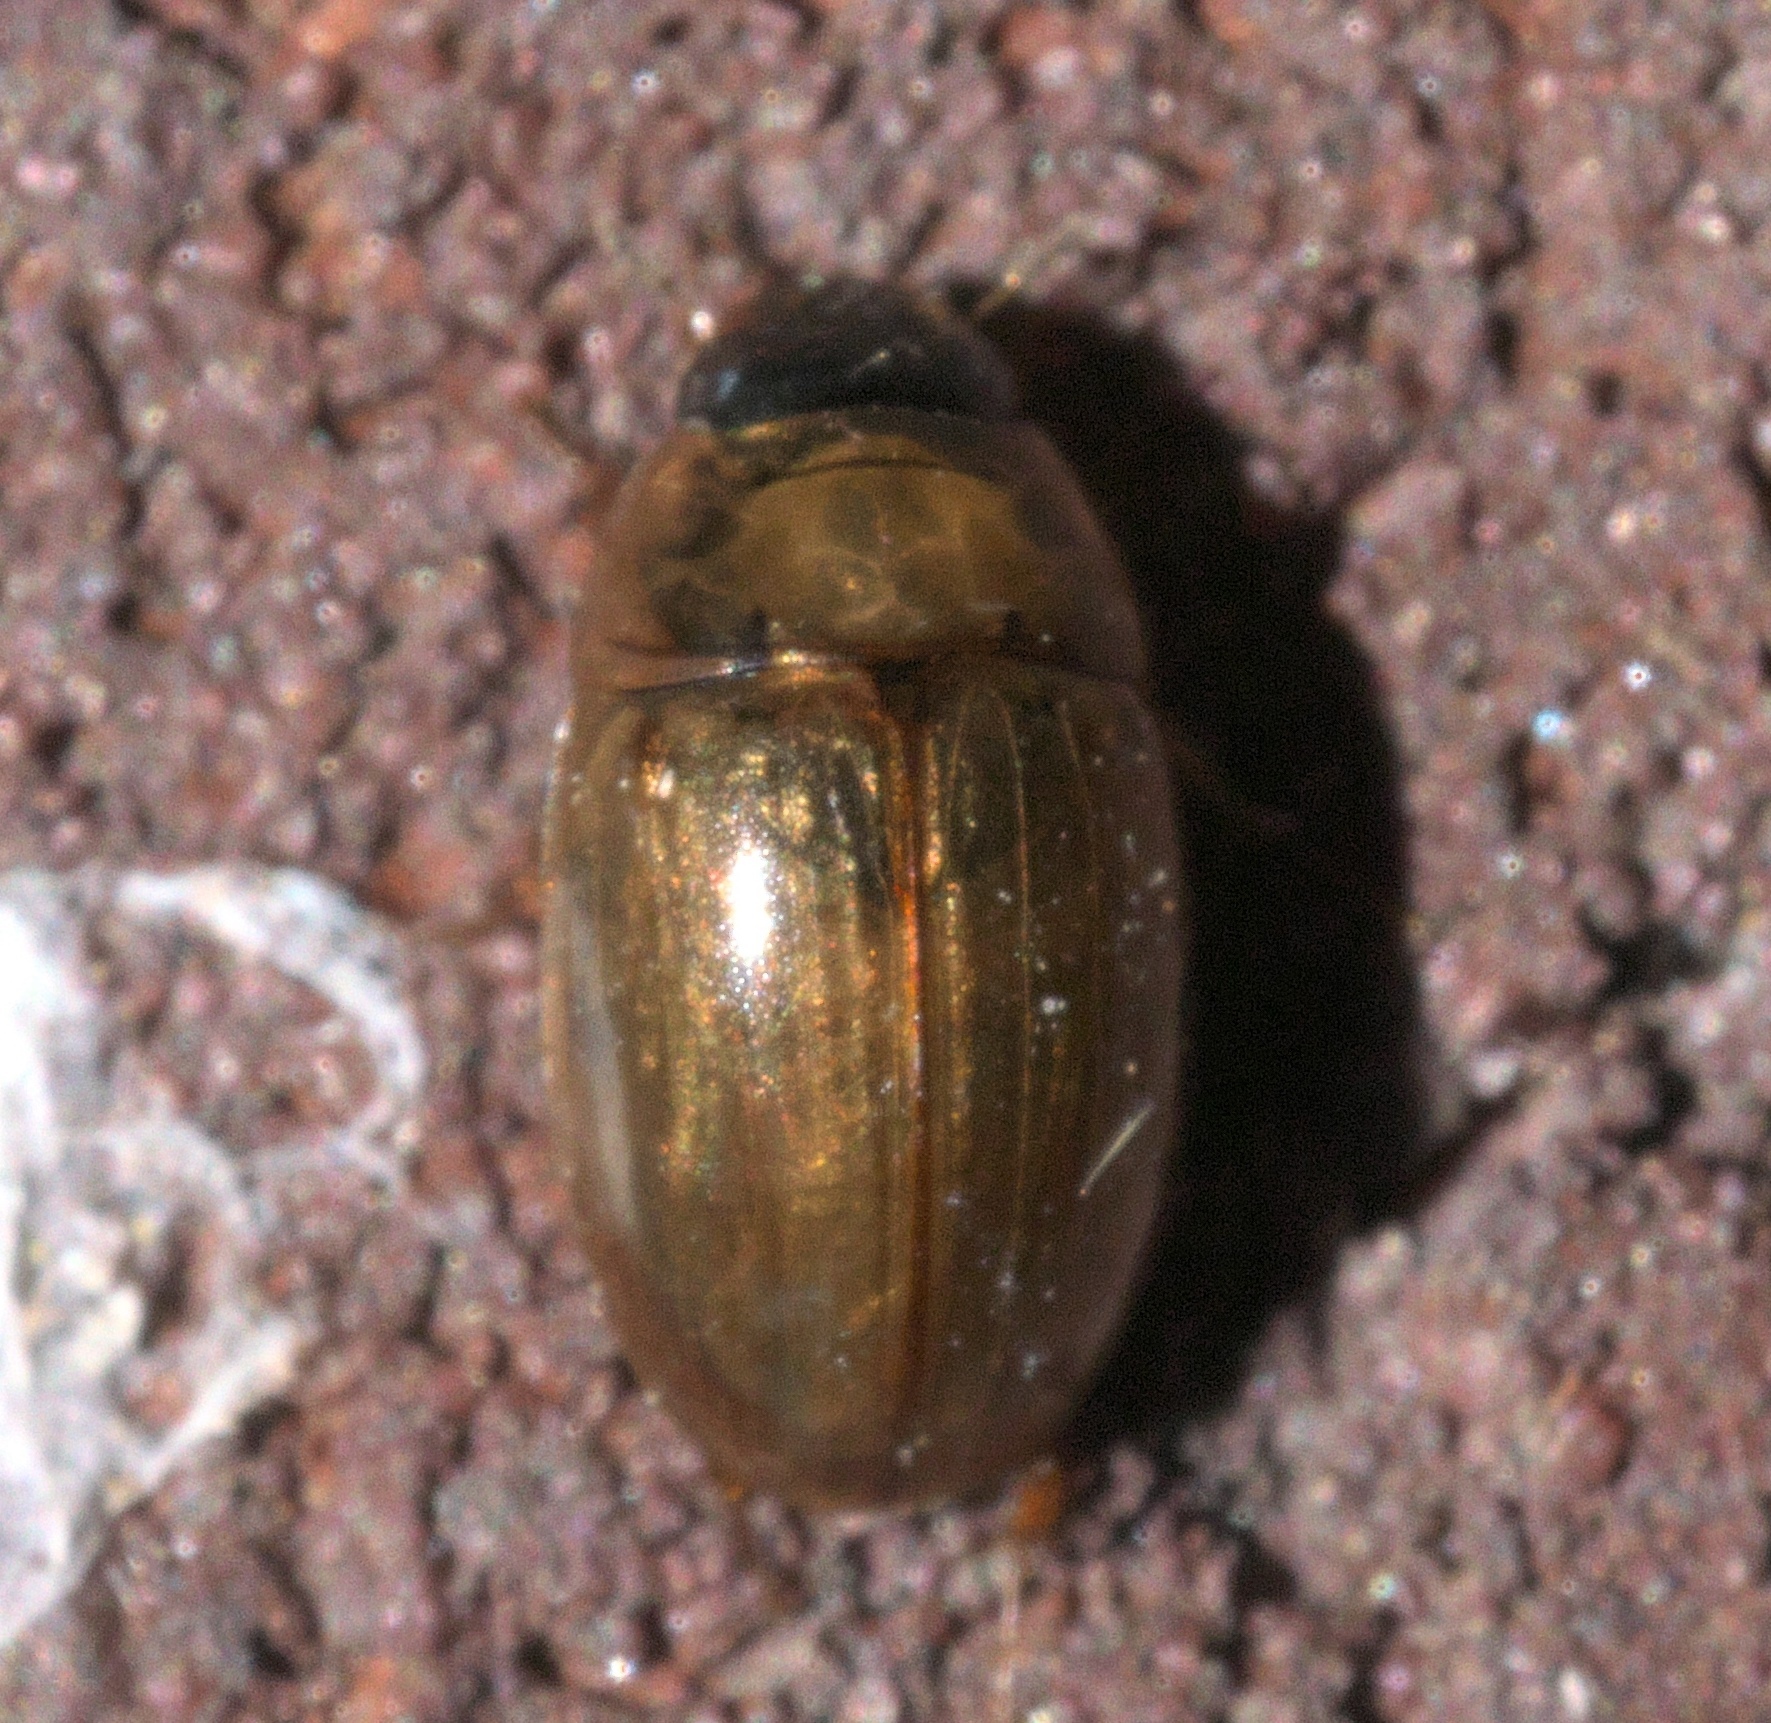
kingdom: Animalia
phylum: Arthropoda
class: Insecta
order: Coleoptera
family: Hydrophilidae
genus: Enochrus
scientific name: Enochrus
